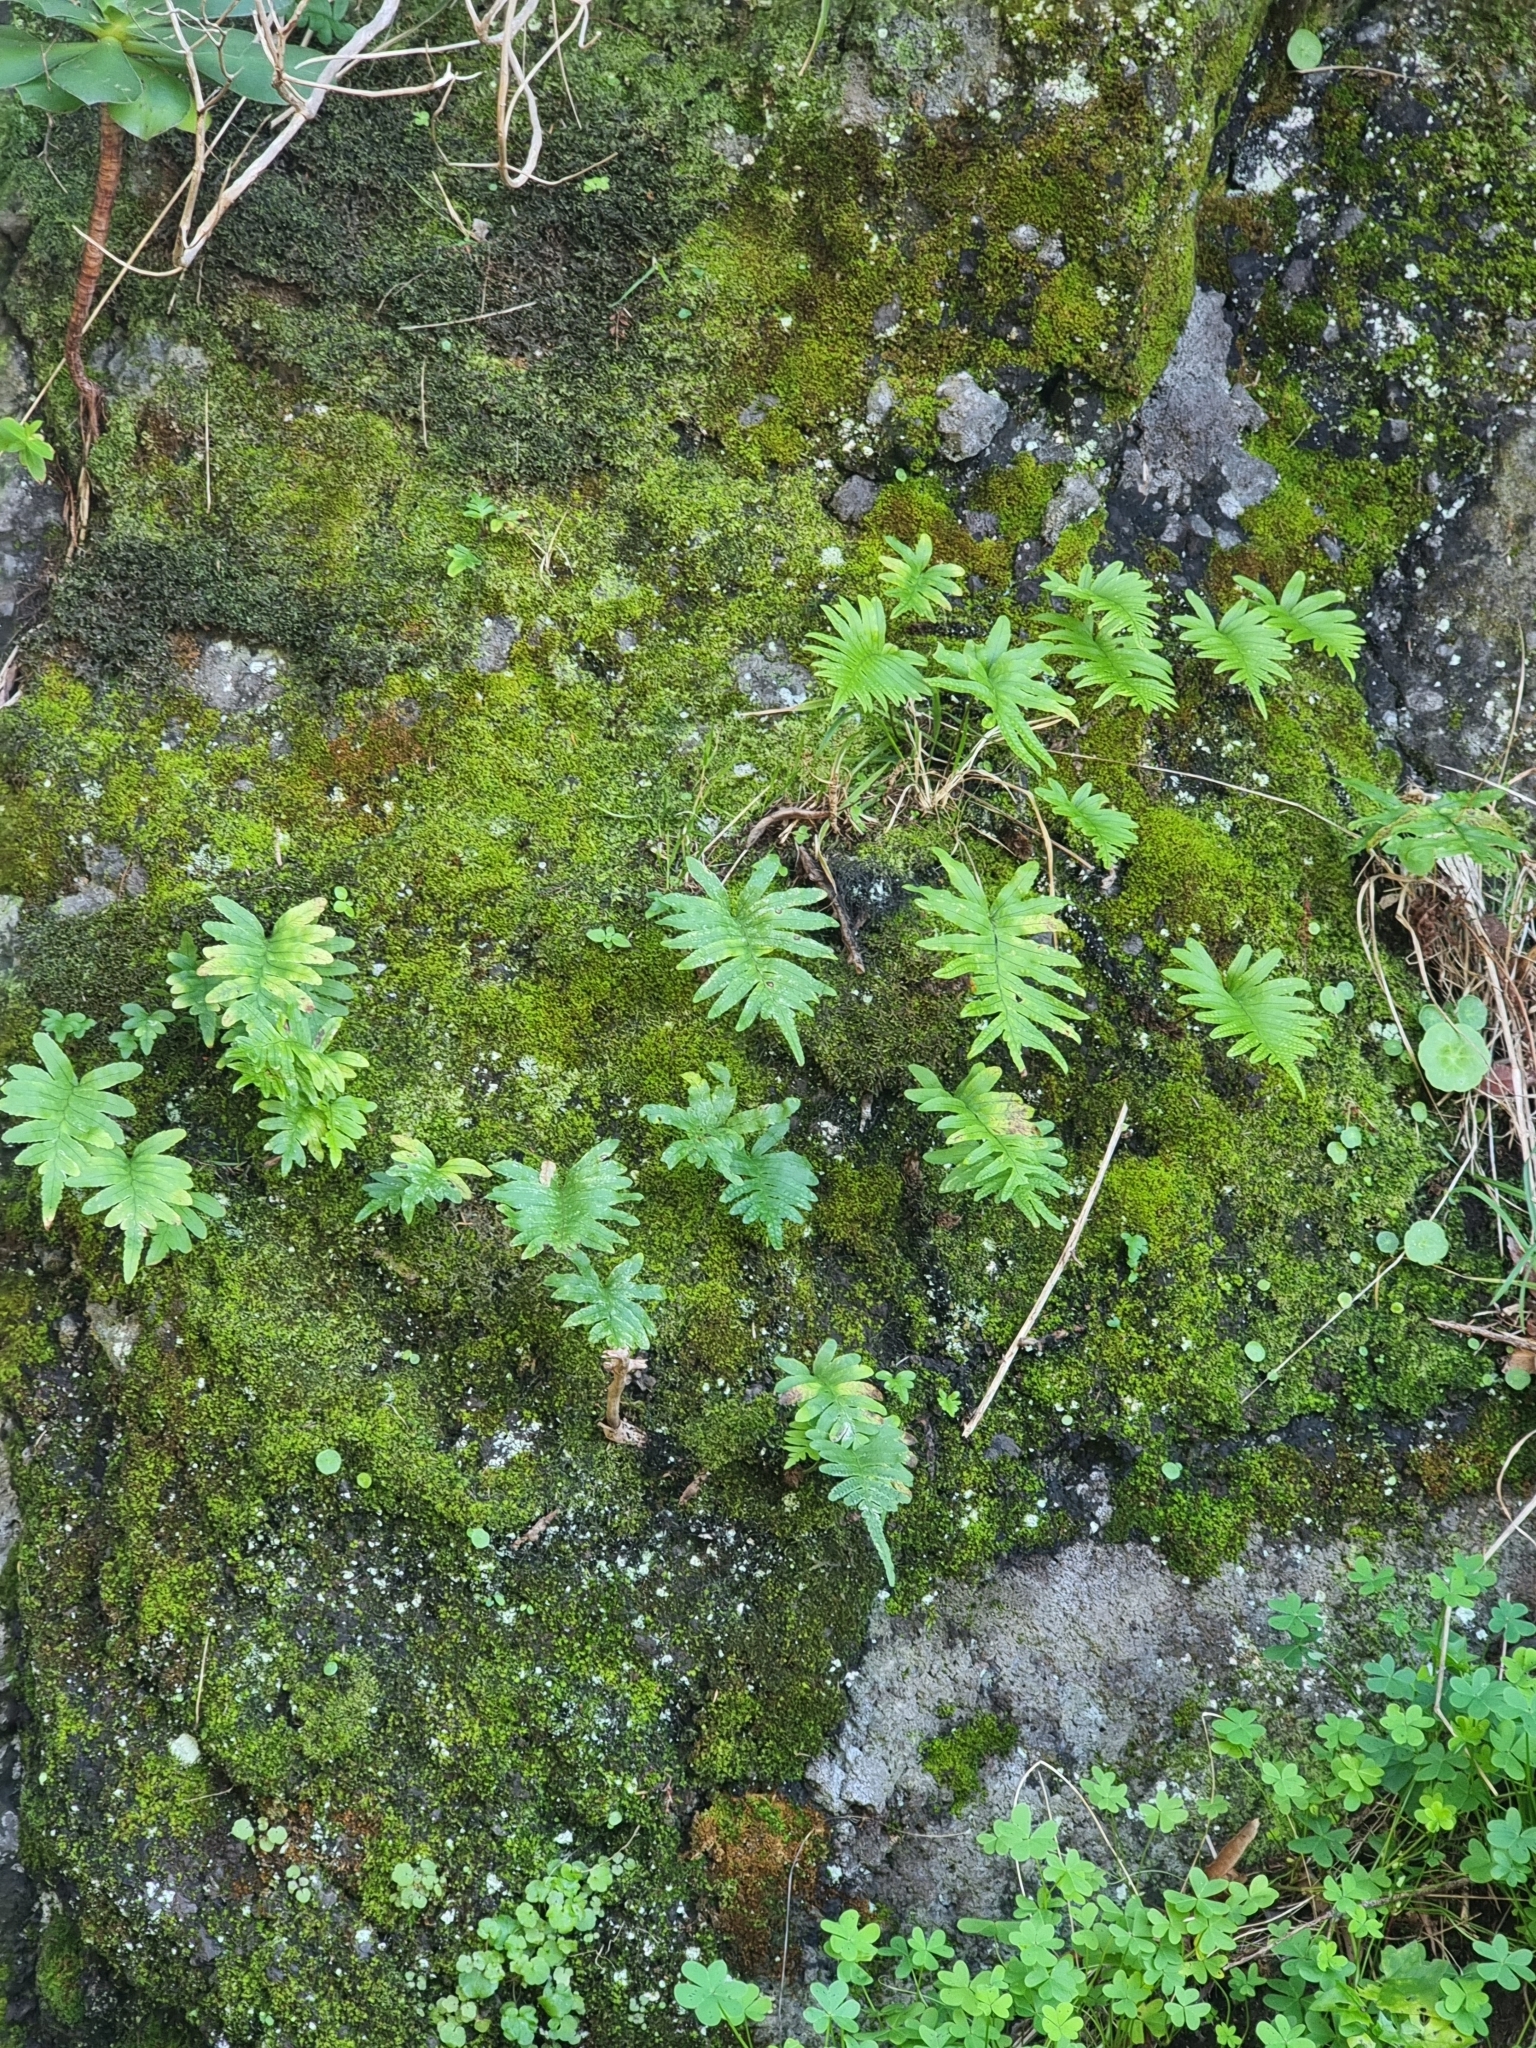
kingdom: Plantae
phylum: Tracheophyta
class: Polypodiopsida
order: Polypodiales
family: Polypodiaceae
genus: Polypodium
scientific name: Polypodium macaronesicum
